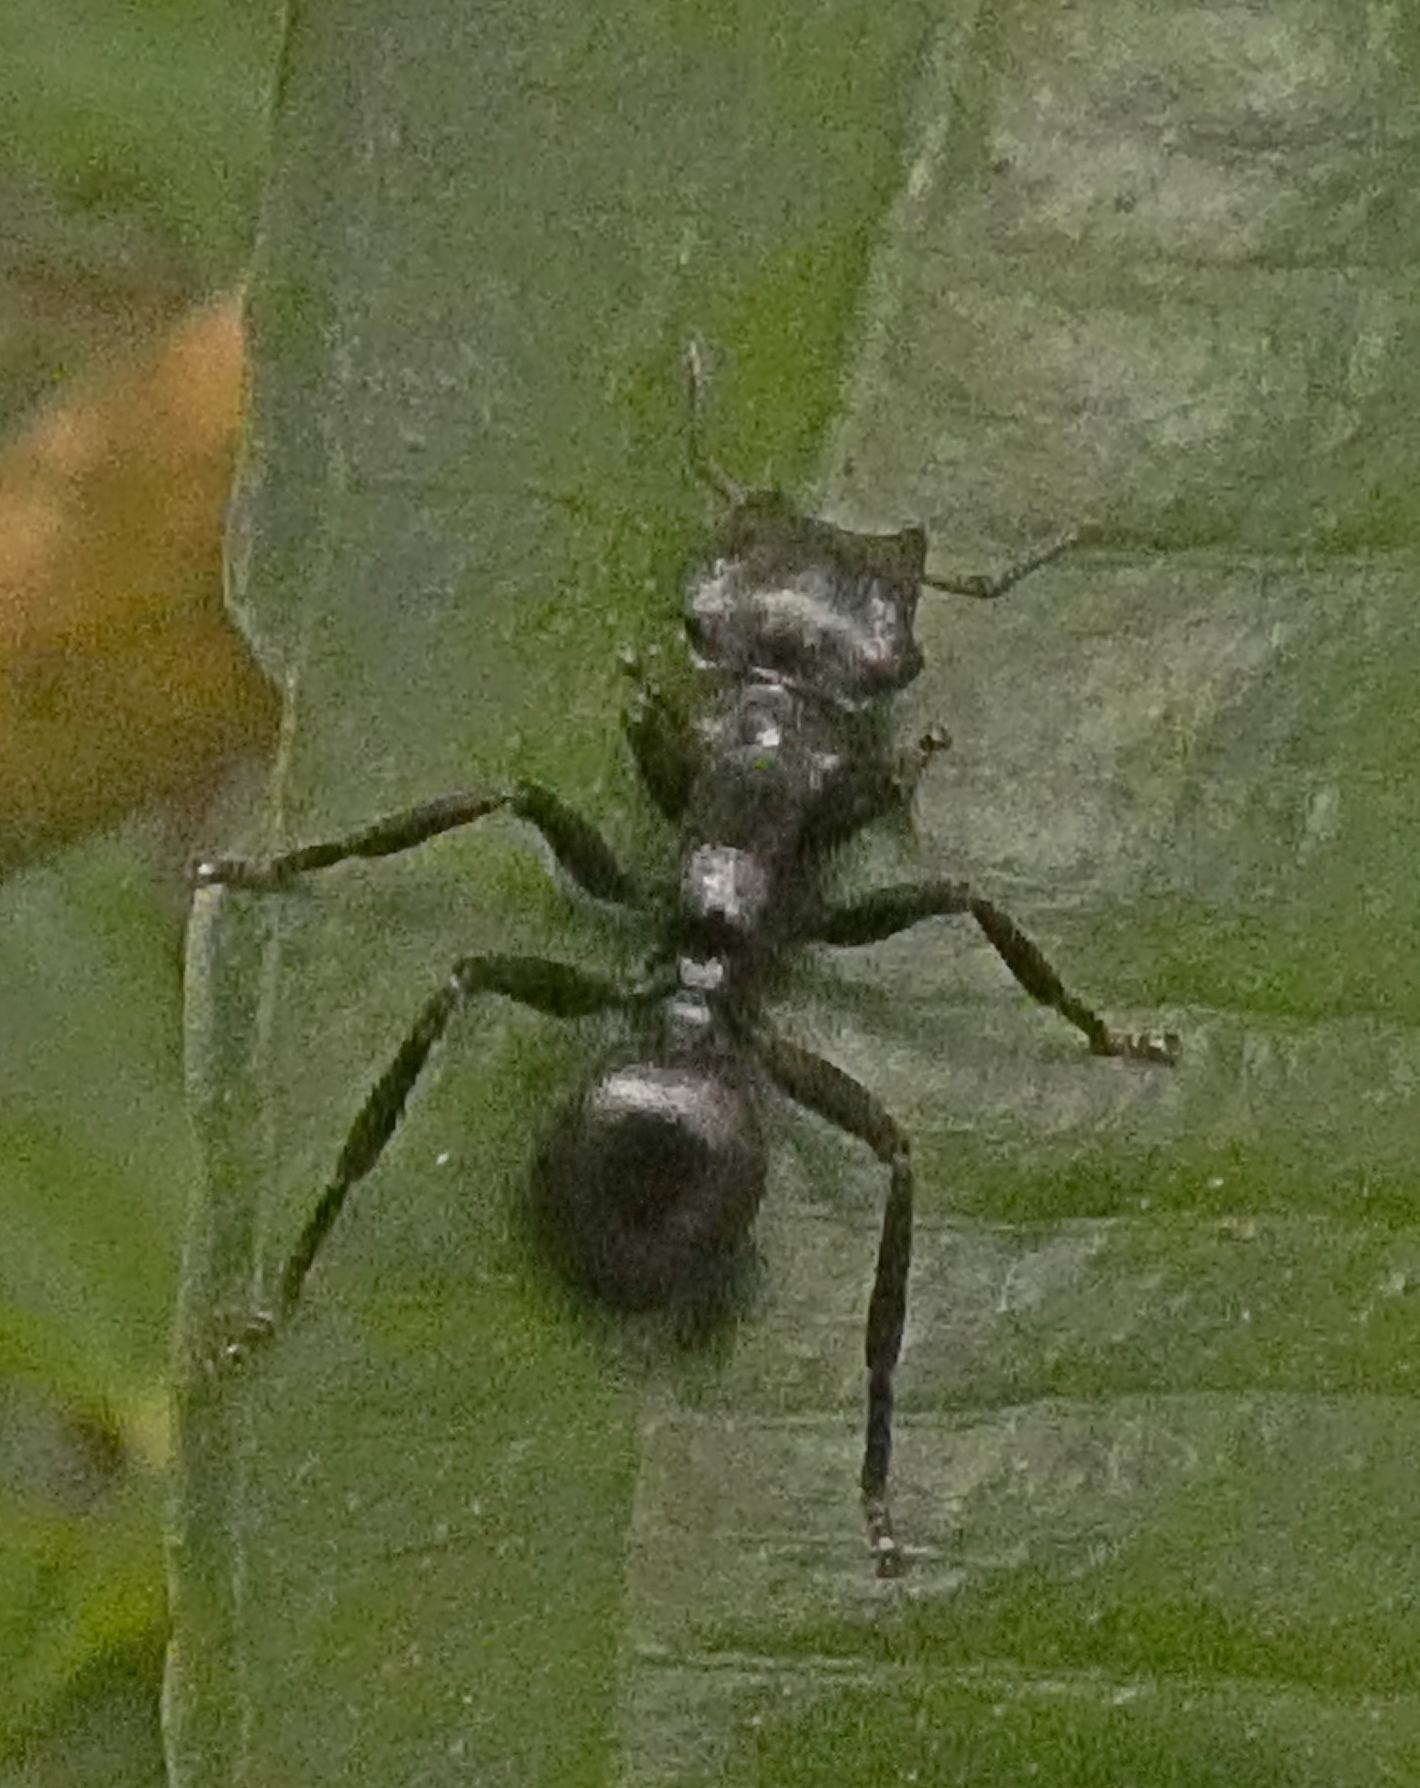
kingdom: Animalia
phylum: Arthropoda
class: Insecta
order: Hymenoptera
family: Formicidae
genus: Cephalotes
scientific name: Cephalotes atratus
